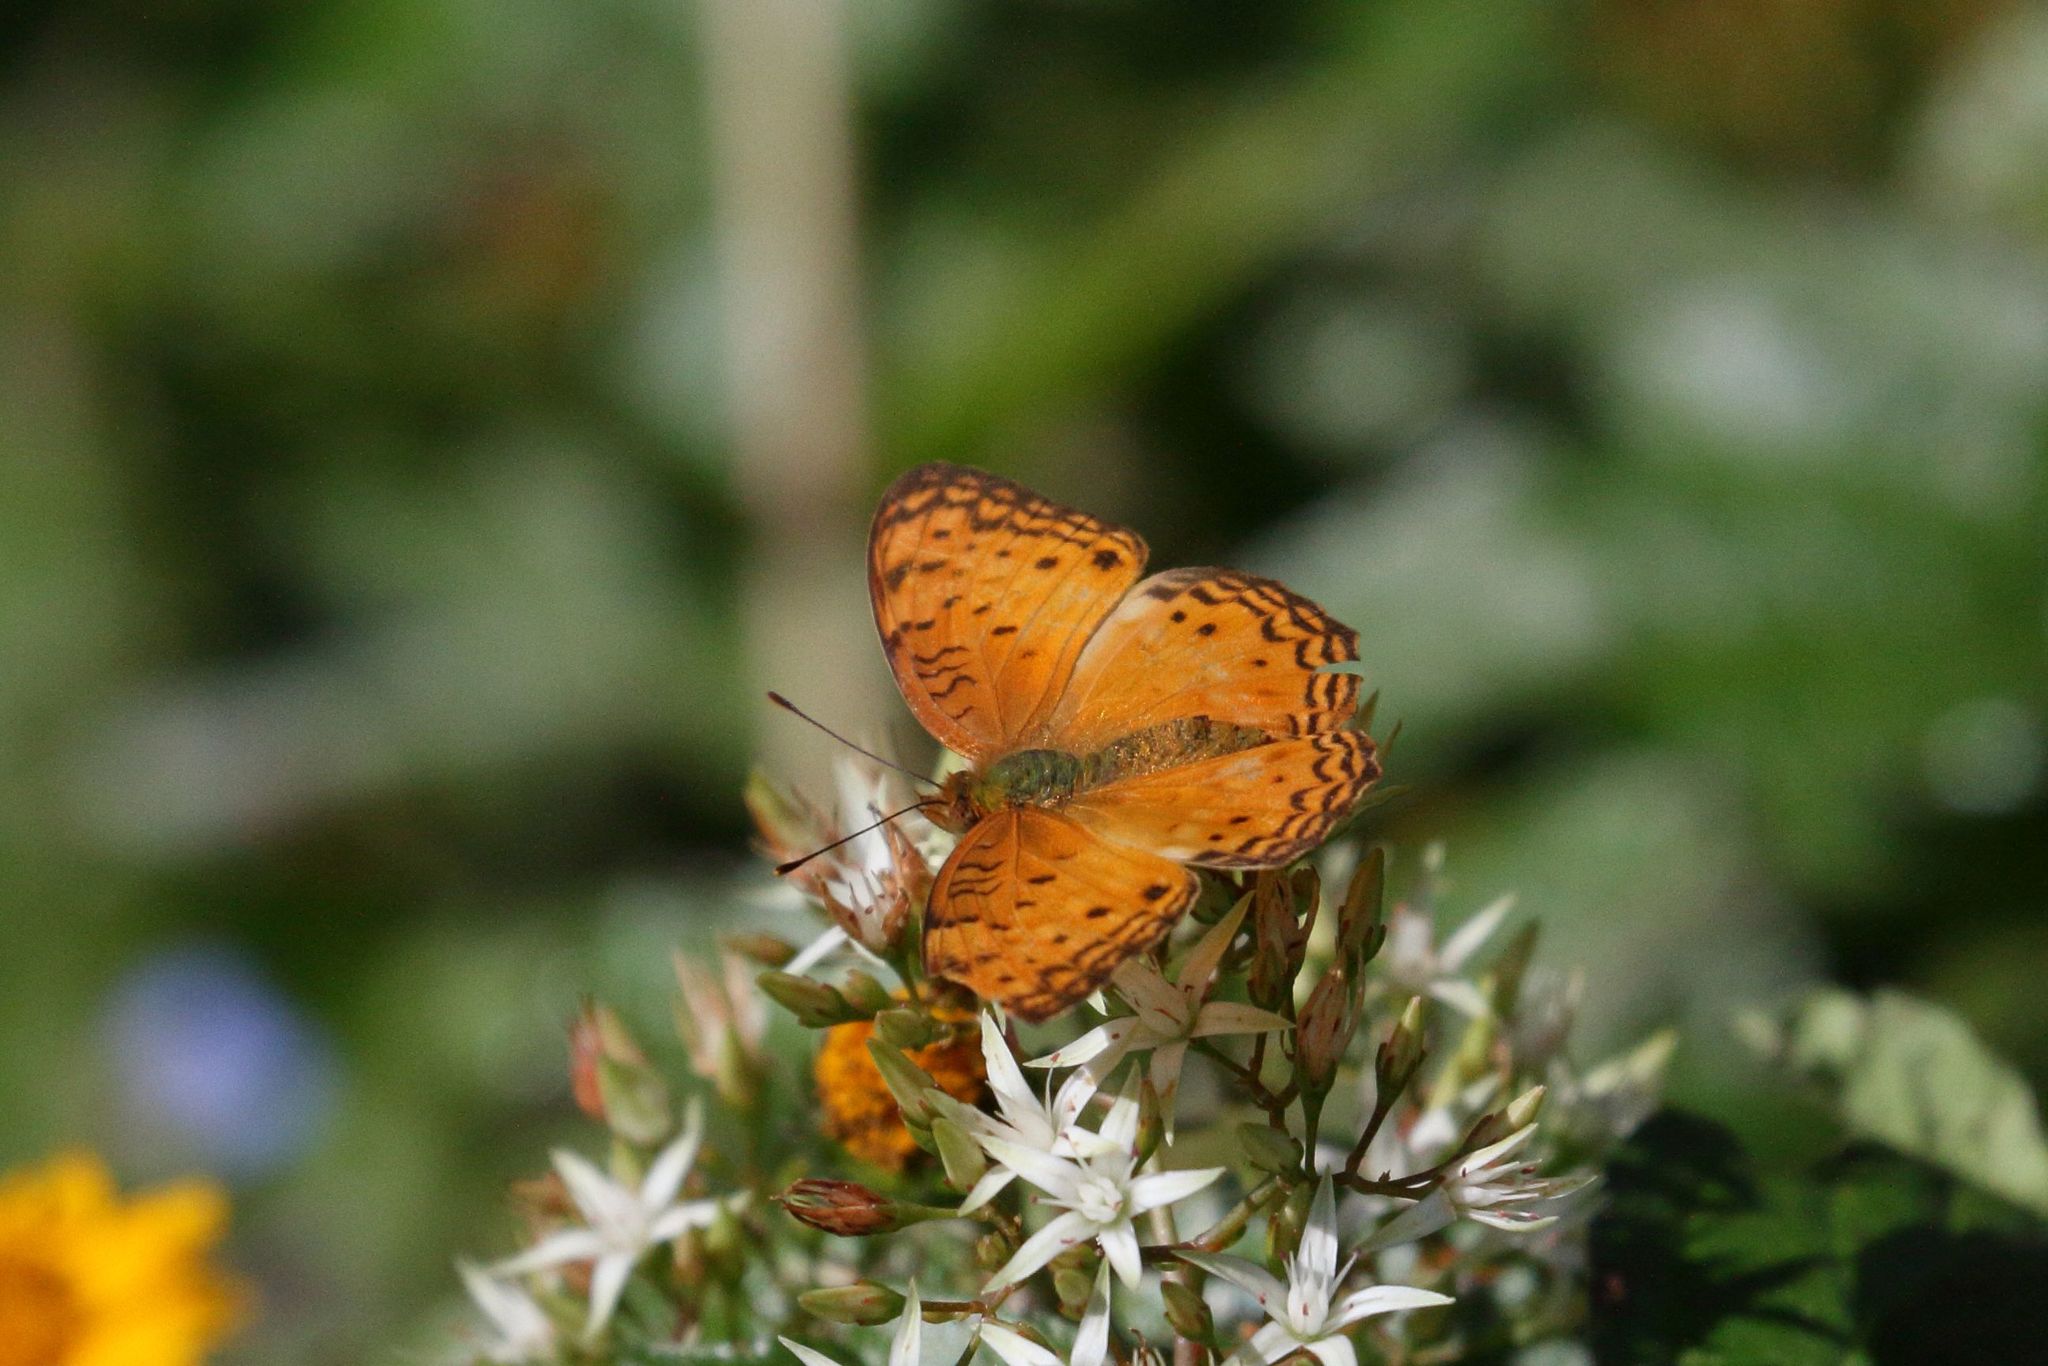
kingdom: Animalia
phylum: Arthropoda
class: Insecta
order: Lepidoptera
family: Nymphalidae
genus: Phalanta
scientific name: Phalanta columbina
